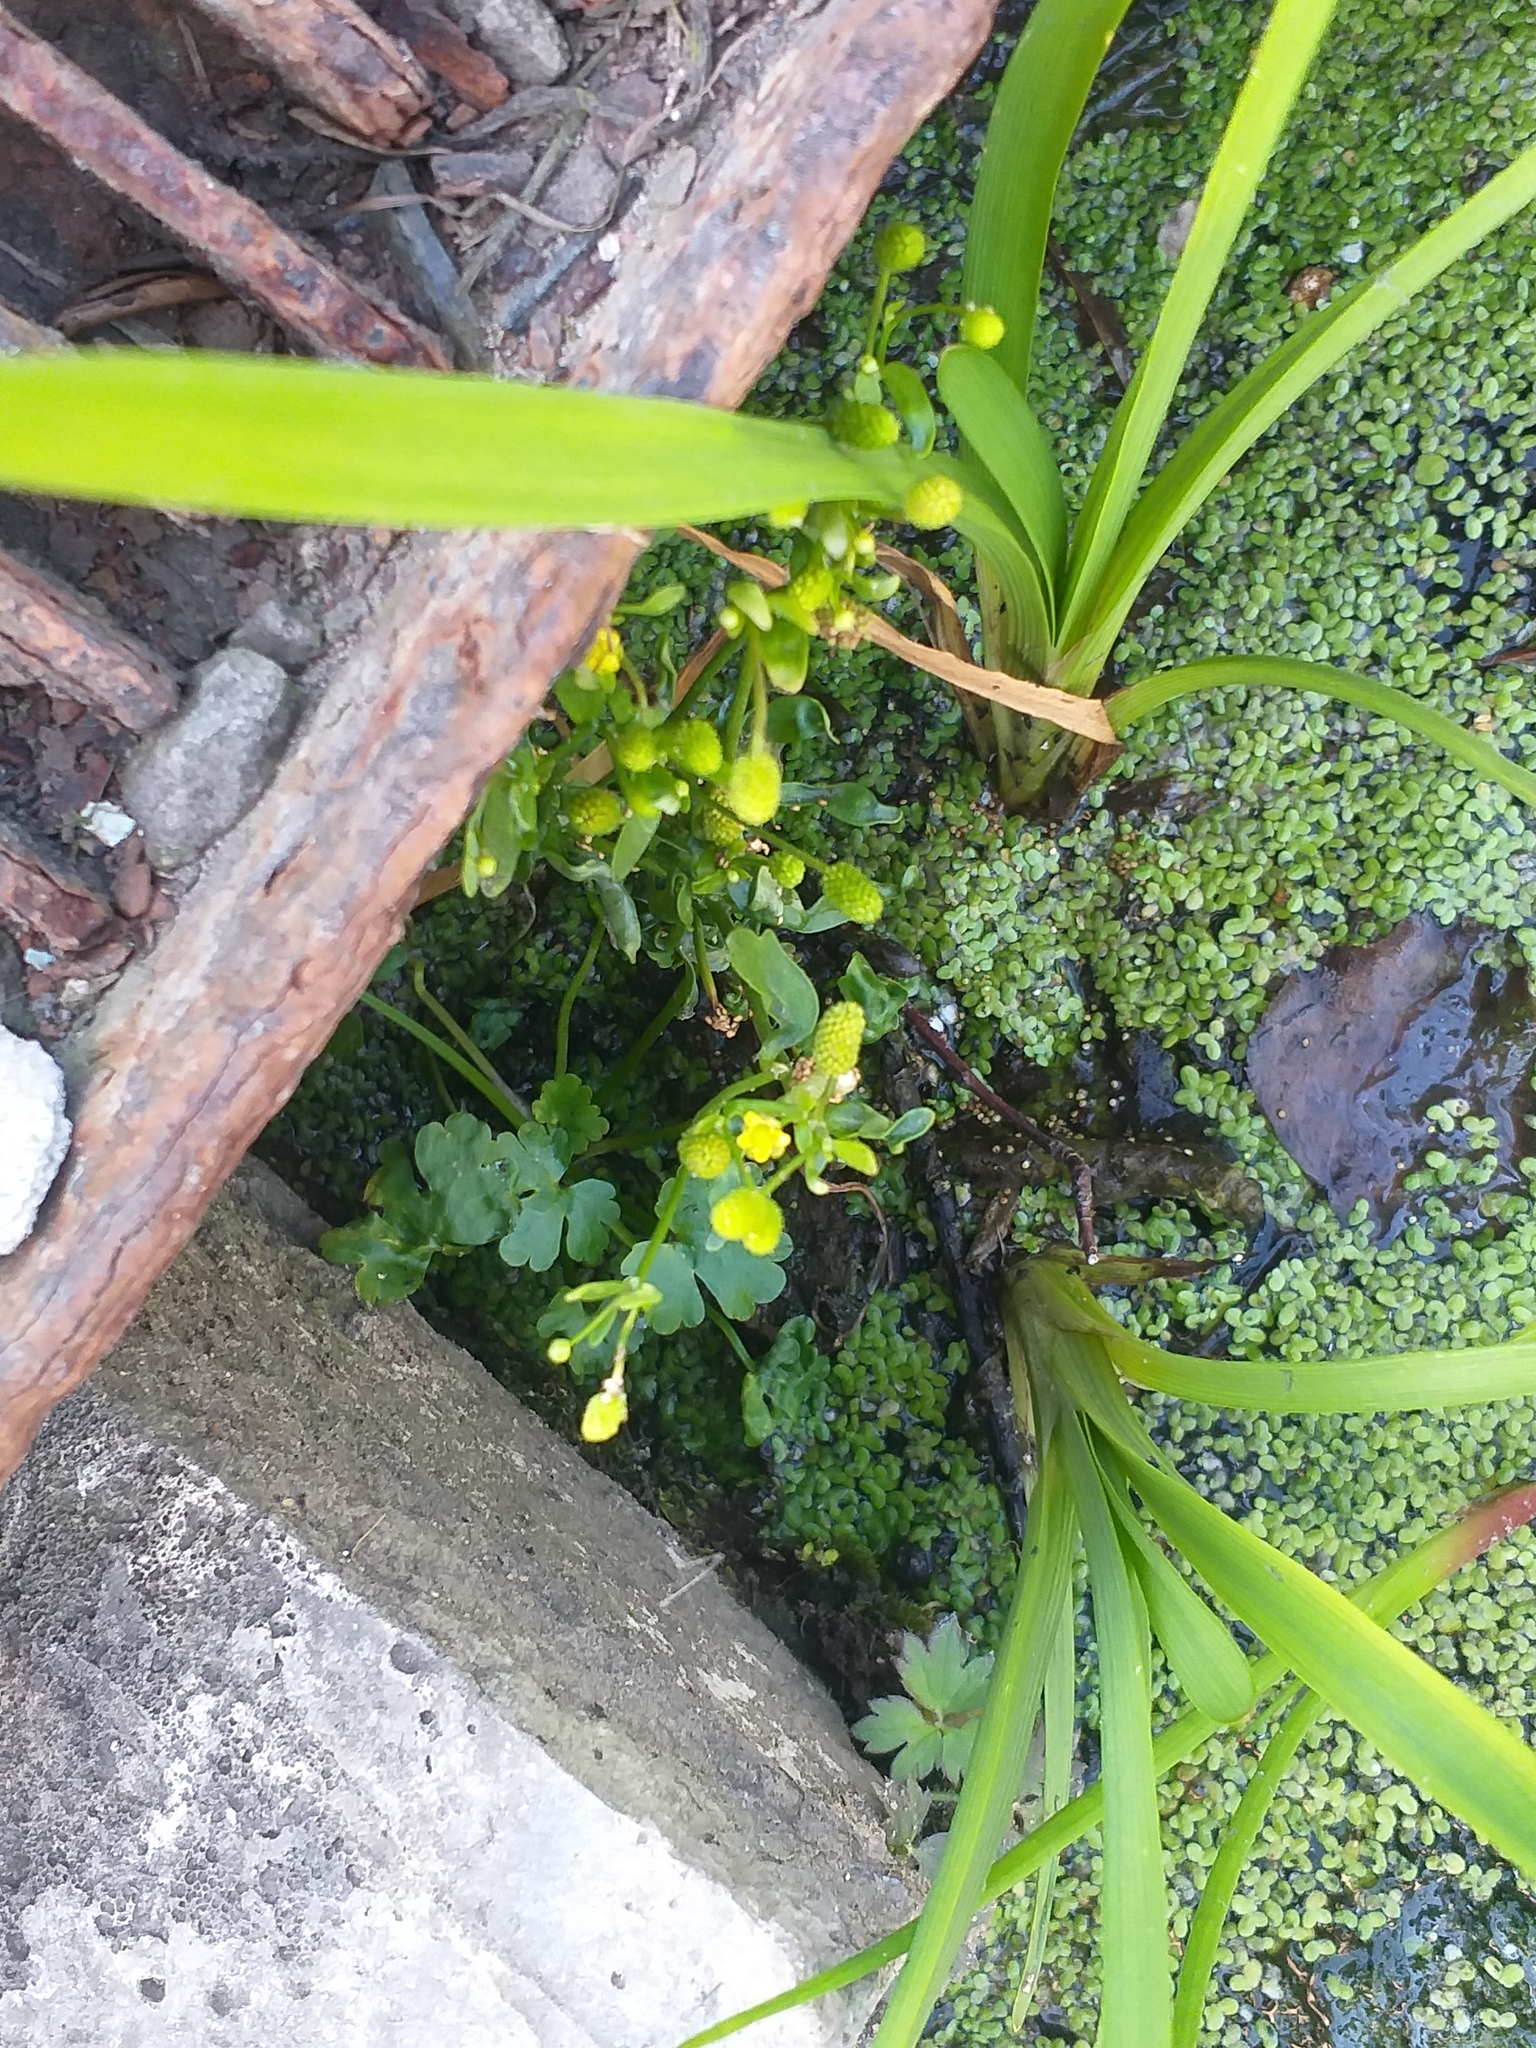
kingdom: Plantae
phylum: Tracheophyta
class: Magnoliopsida
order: Ranunculales
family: Ranunculaceae
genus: Ranunculus
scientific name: Ranunculus sceleratus
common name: Celery-leaved buttercup
